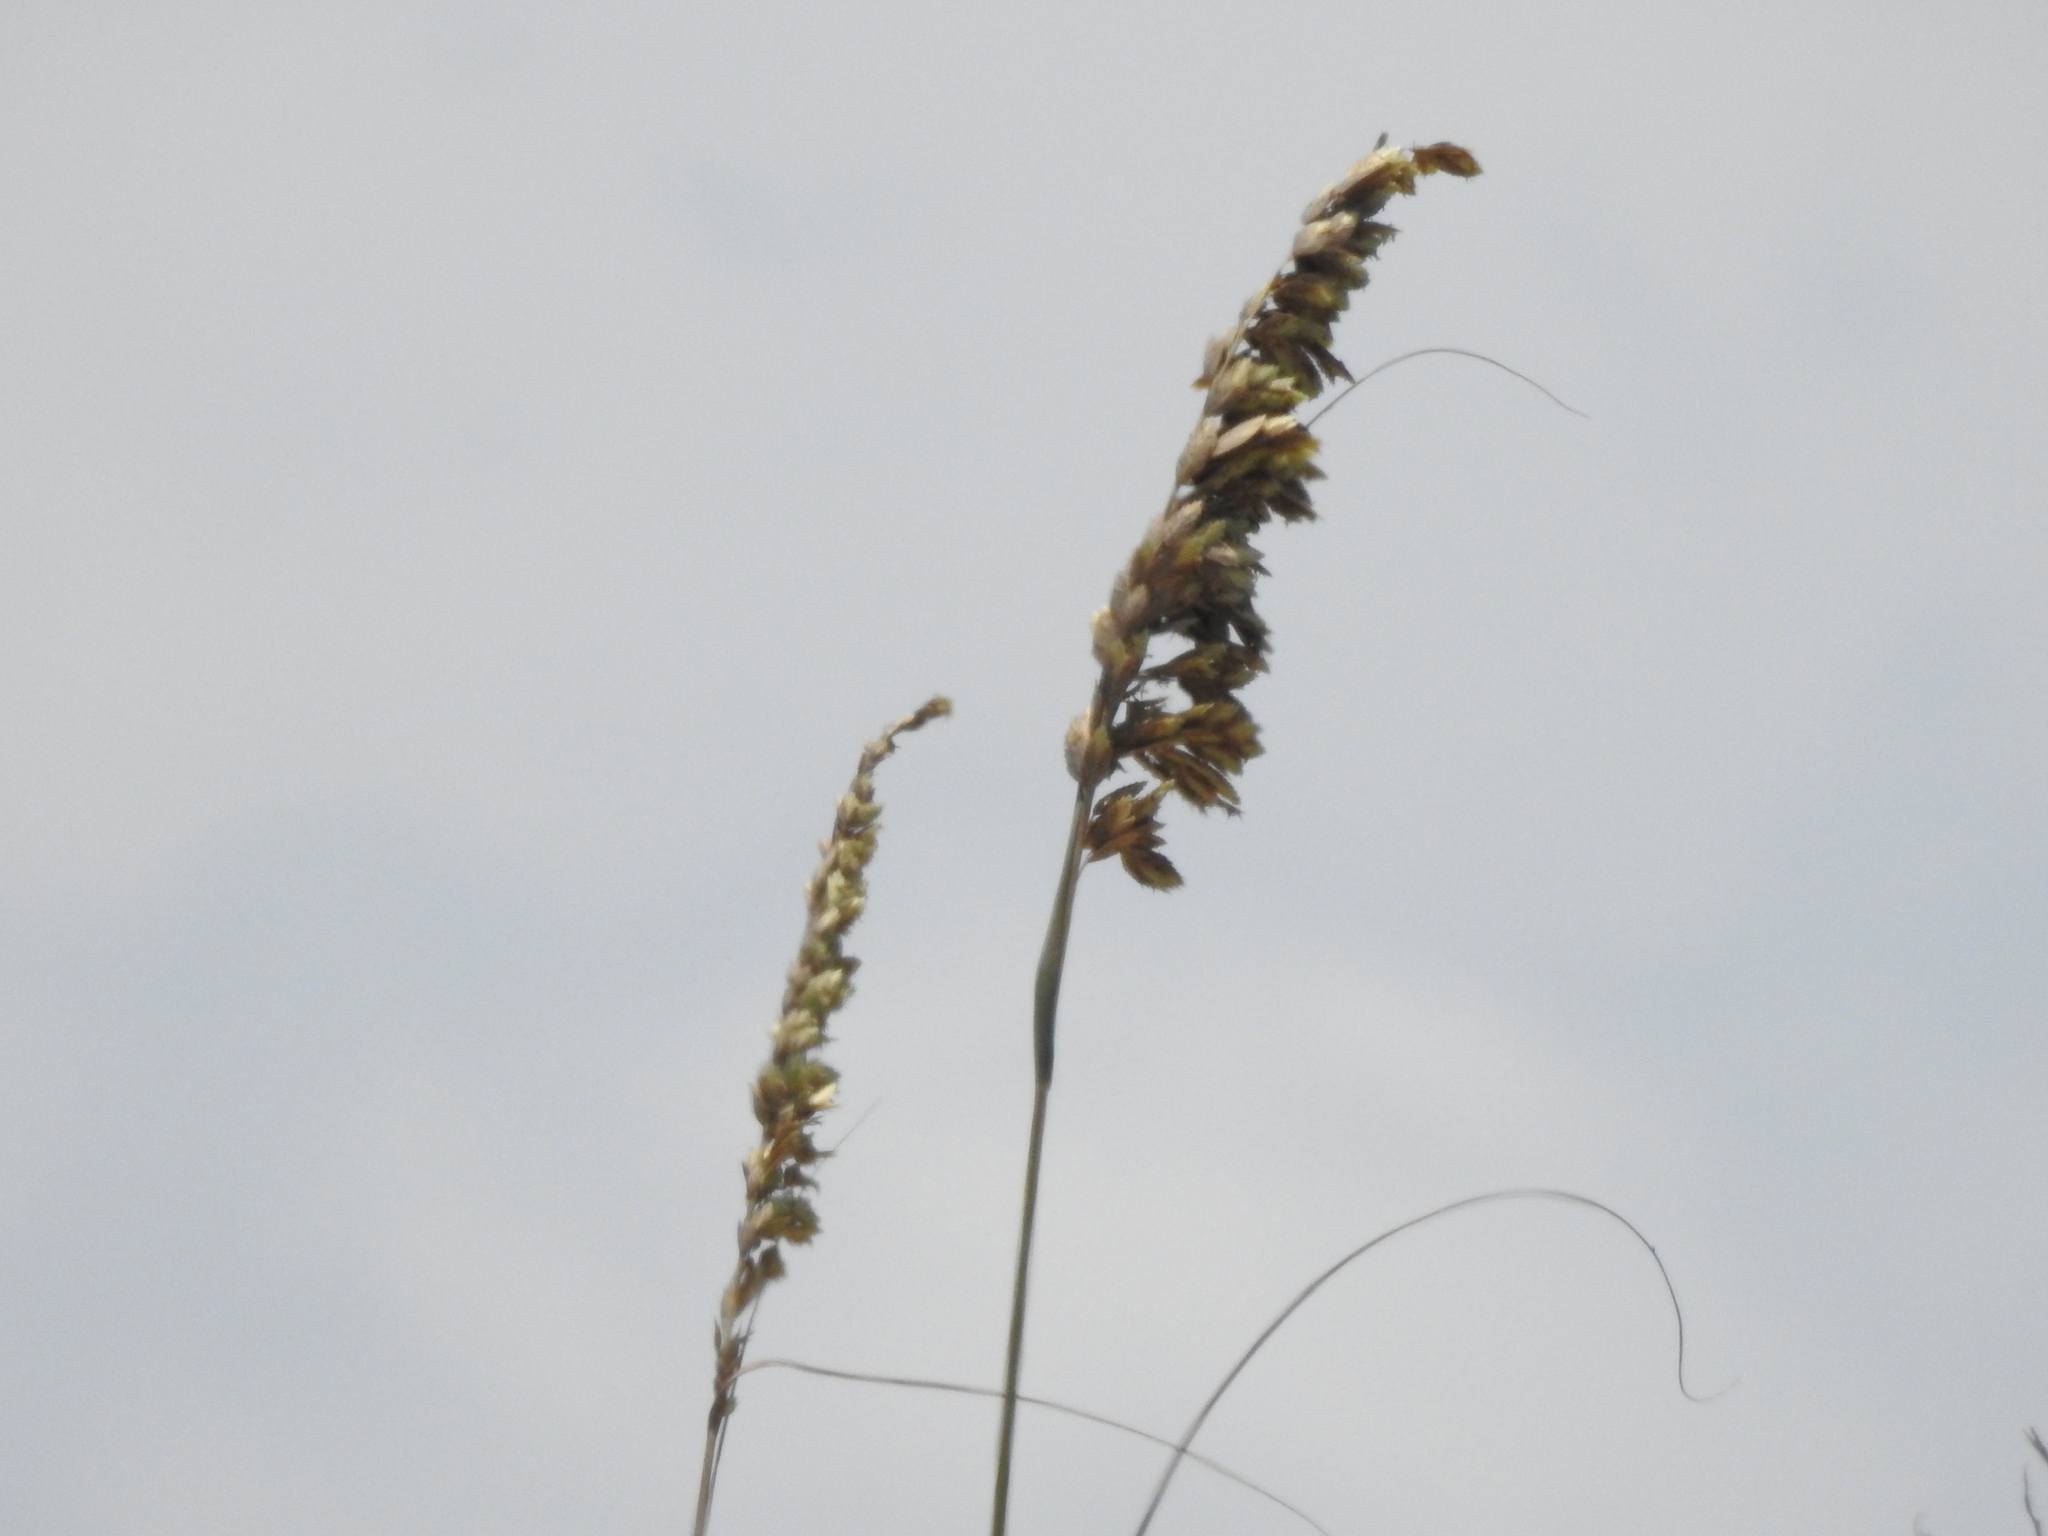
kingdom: Plantae
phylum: Tracheophyta
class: Liliopsida
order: Poales
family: Poaceae
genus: Uniola
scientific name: Uniola paniculata
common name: Seaside-oats
